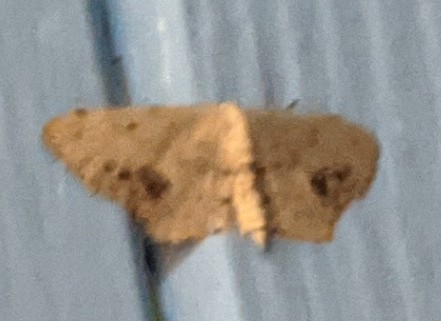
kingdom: Animalia
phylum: Arthropoda
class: Insecta
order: Lepidoptera
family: Geometridae
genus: Idaea
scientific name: Idaea dimidiata
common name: Single-dotted wave
